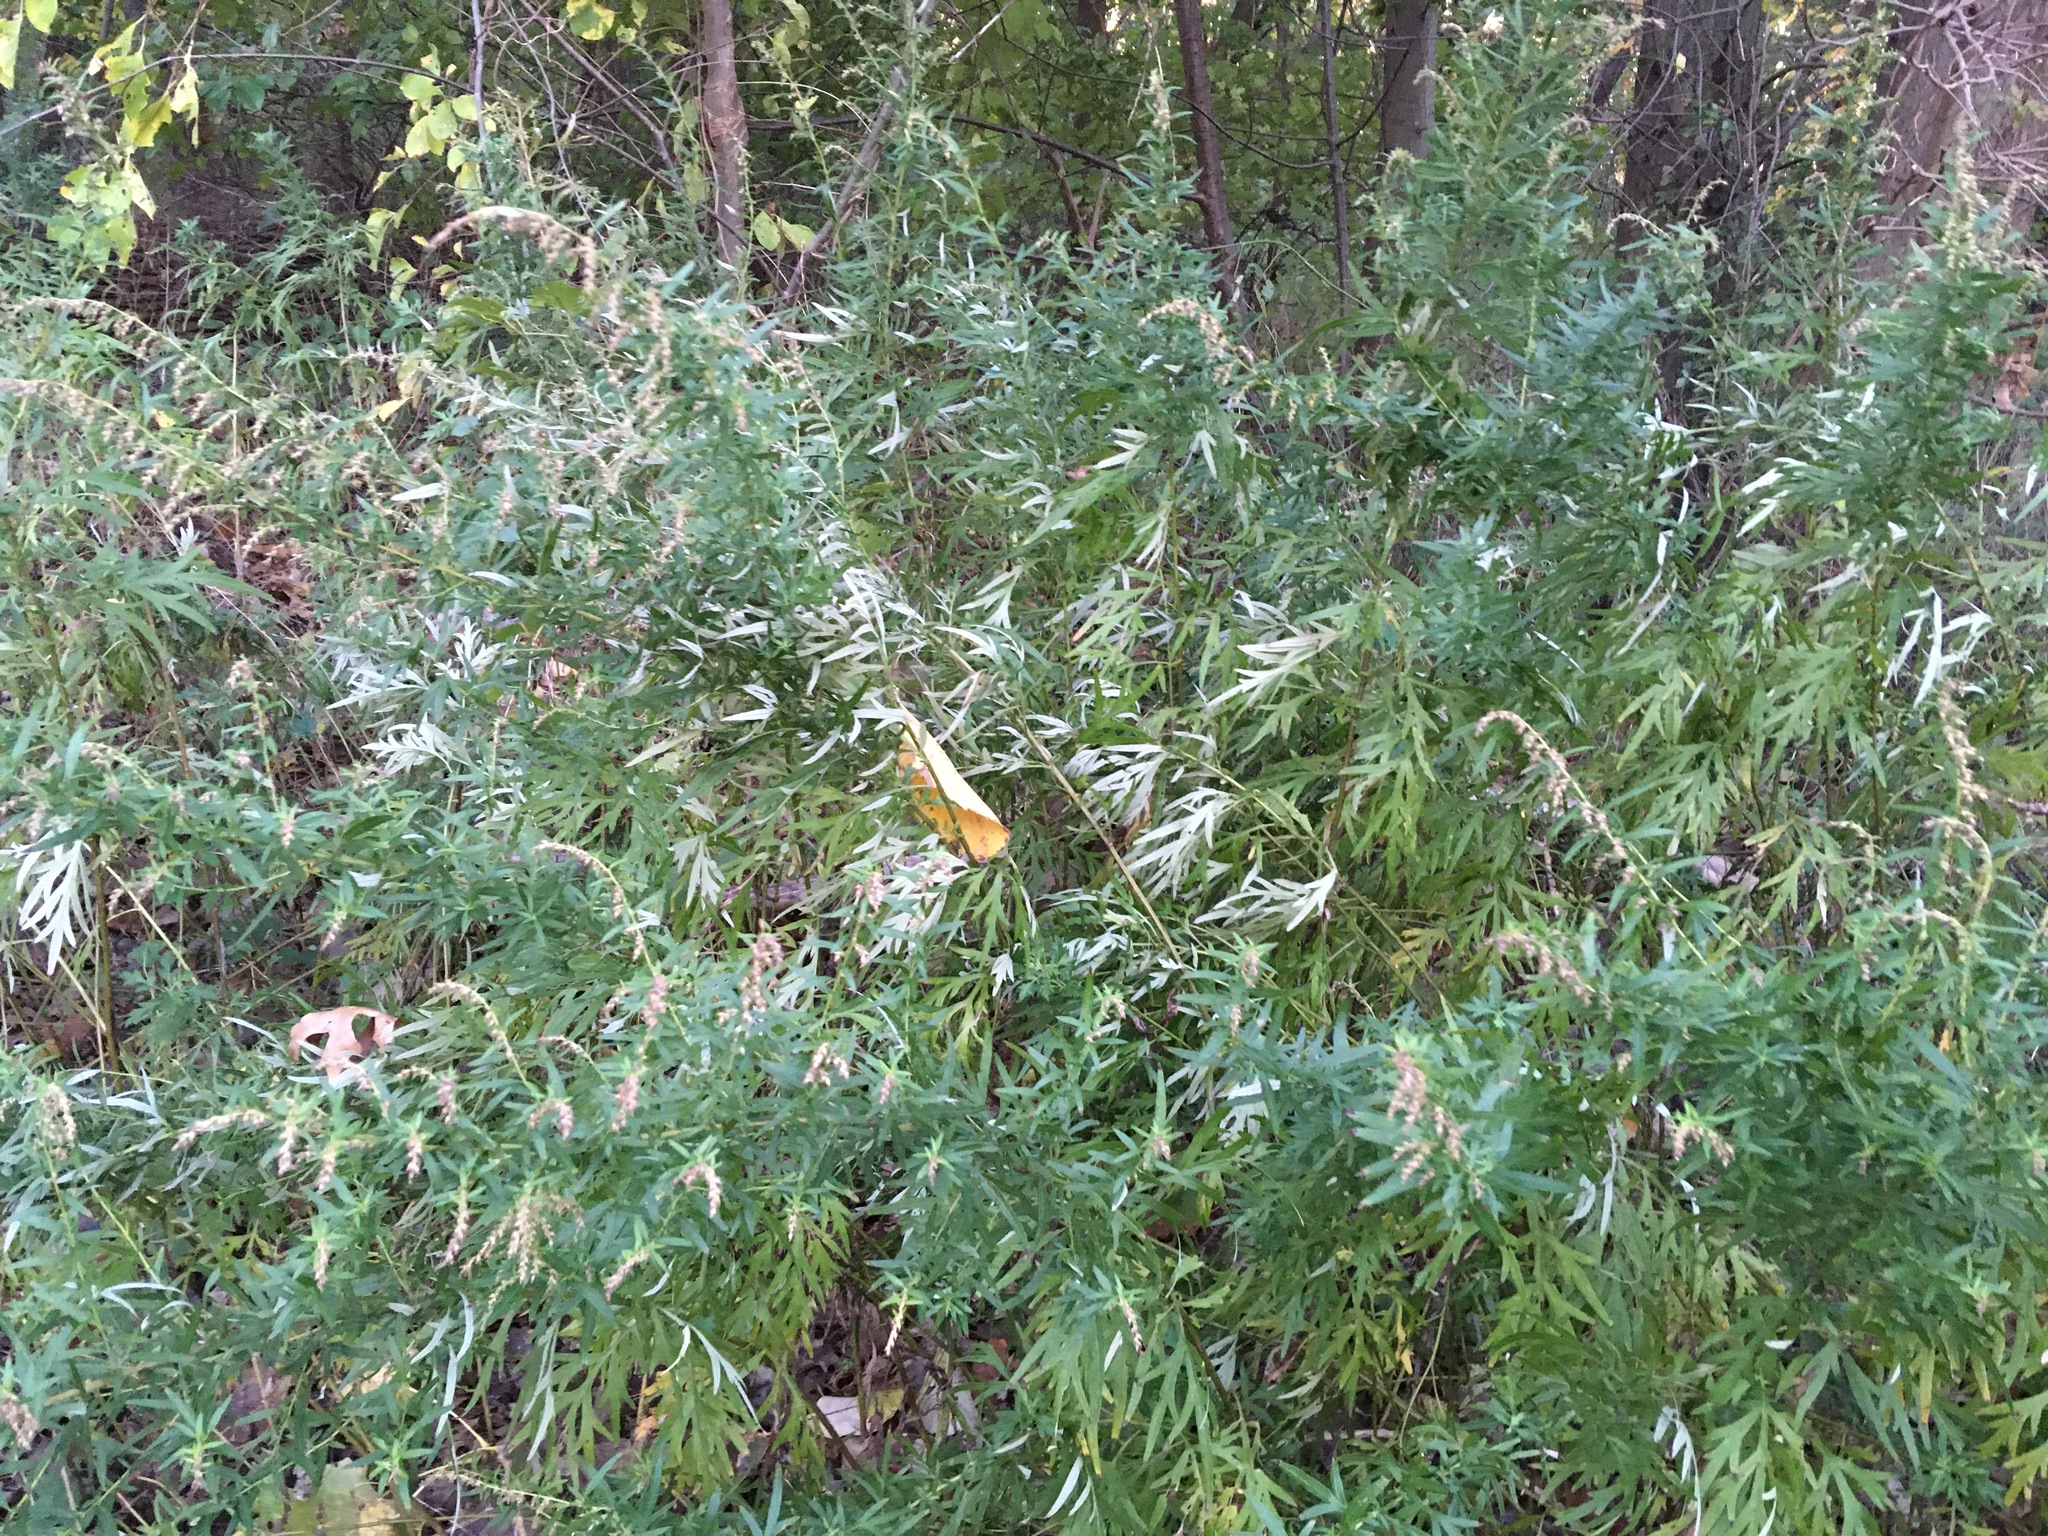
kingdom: Plantae
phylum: Tracheophyta
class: Magnoliopsida
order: Asterales
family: Asteraceae
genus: Artemisia
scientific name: Artemisia vulgaris
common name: Mugwort
